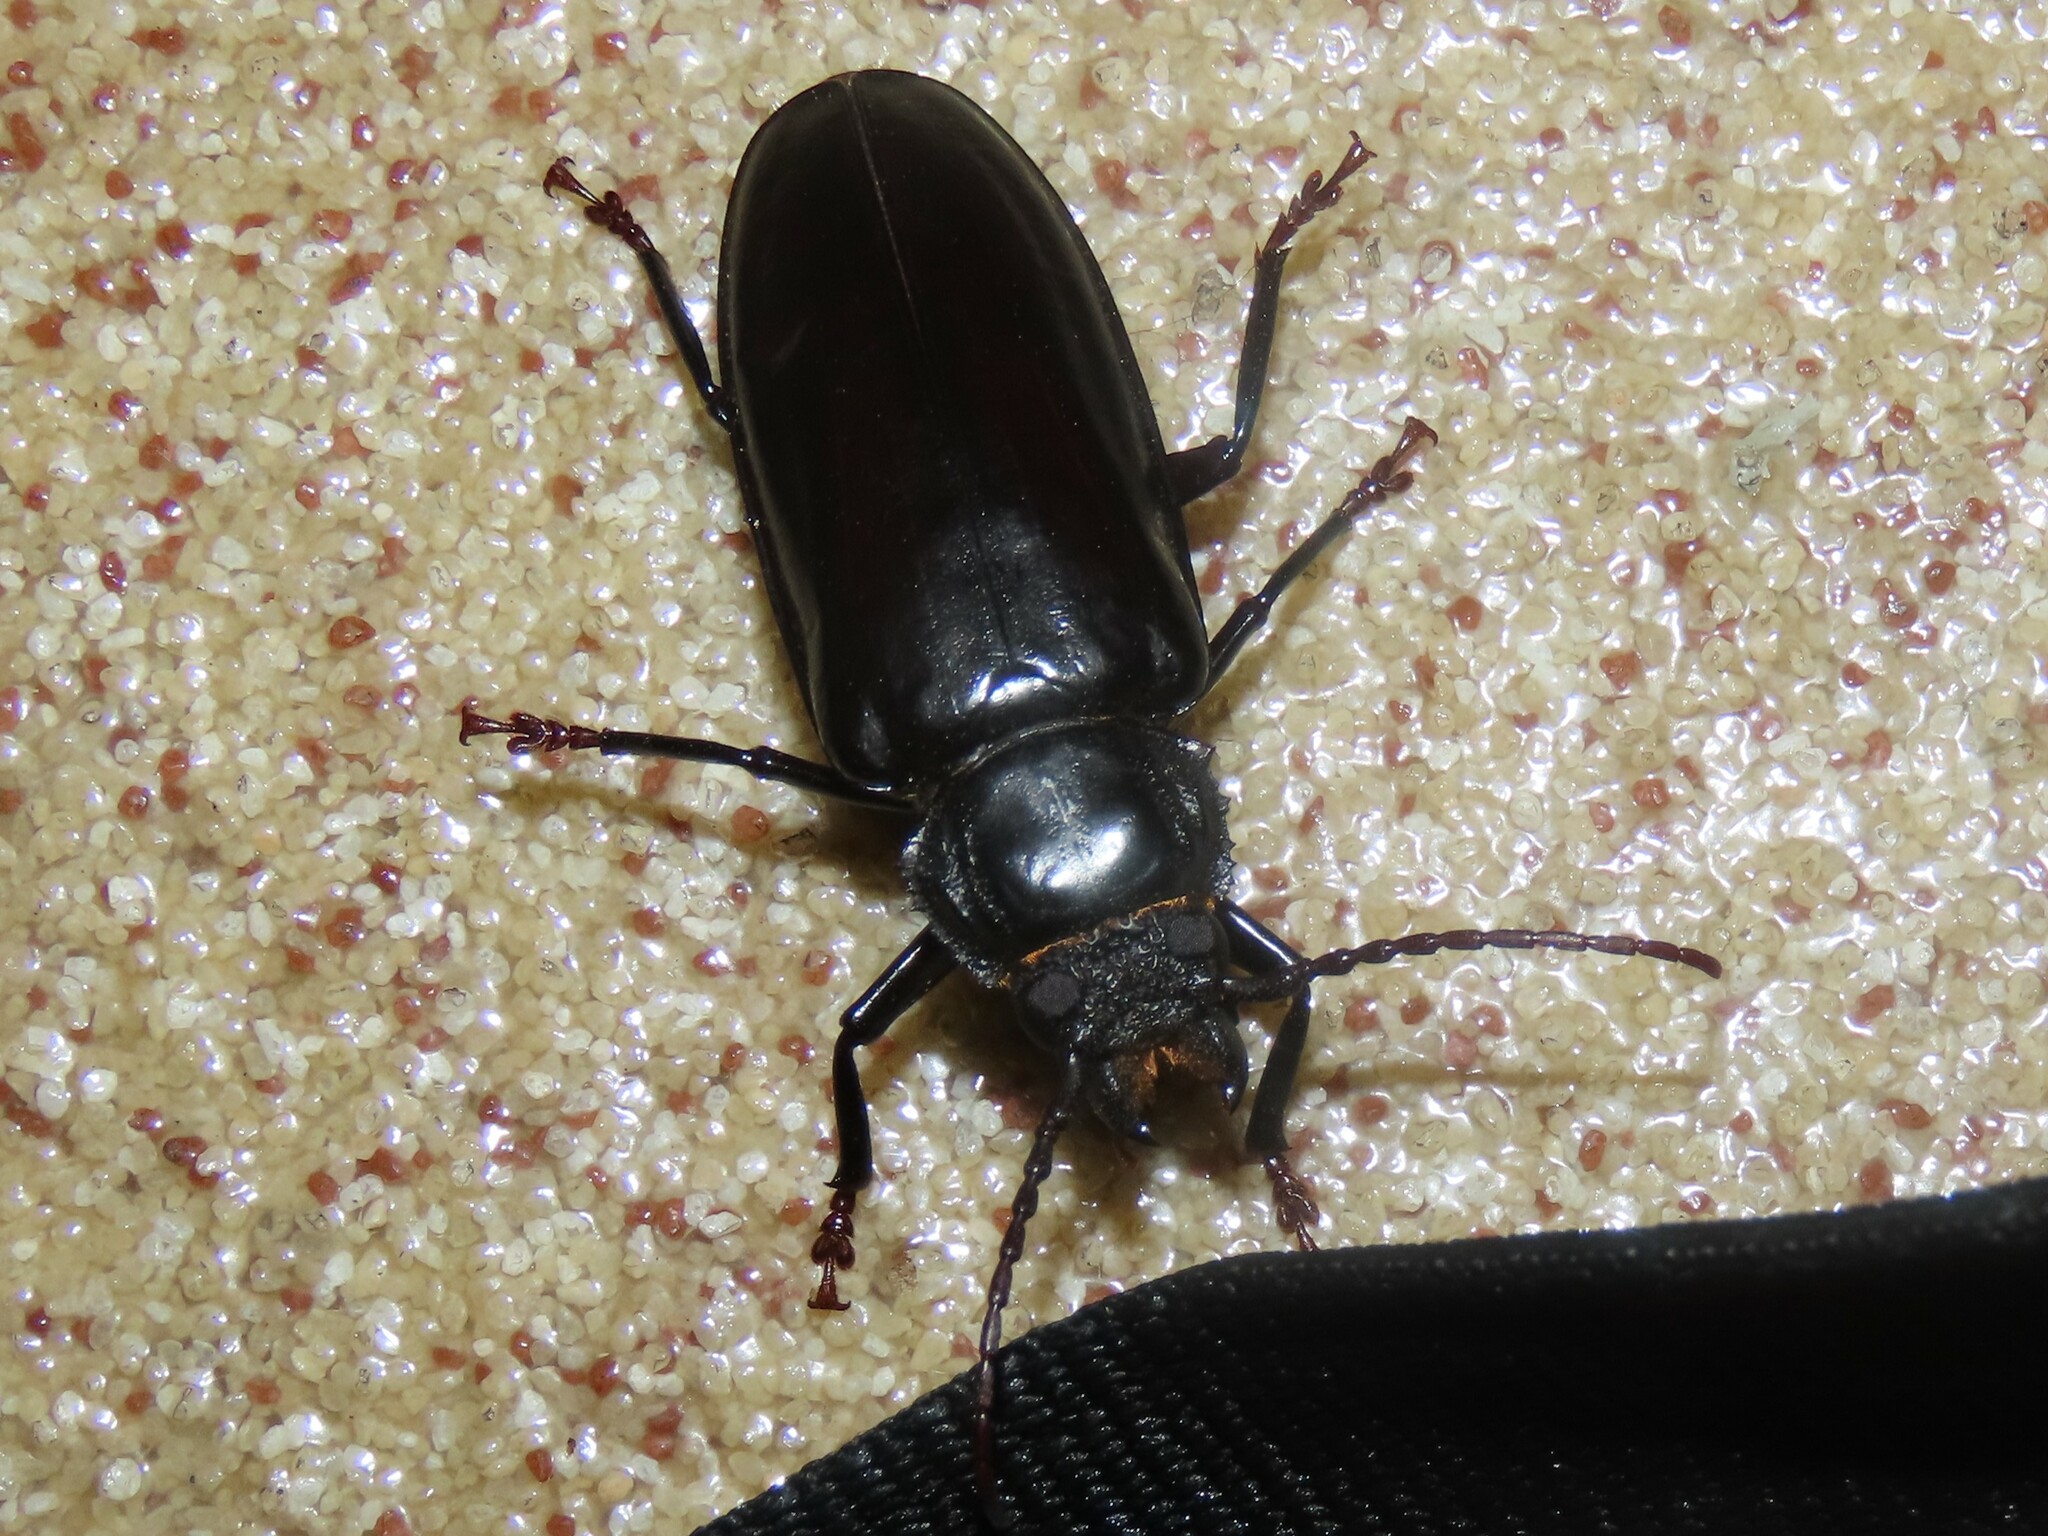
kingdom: Animalia
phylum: Arthropoda
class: Insecta
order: Coleoptera
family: Cerambycidae
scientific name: Cerambycidae
